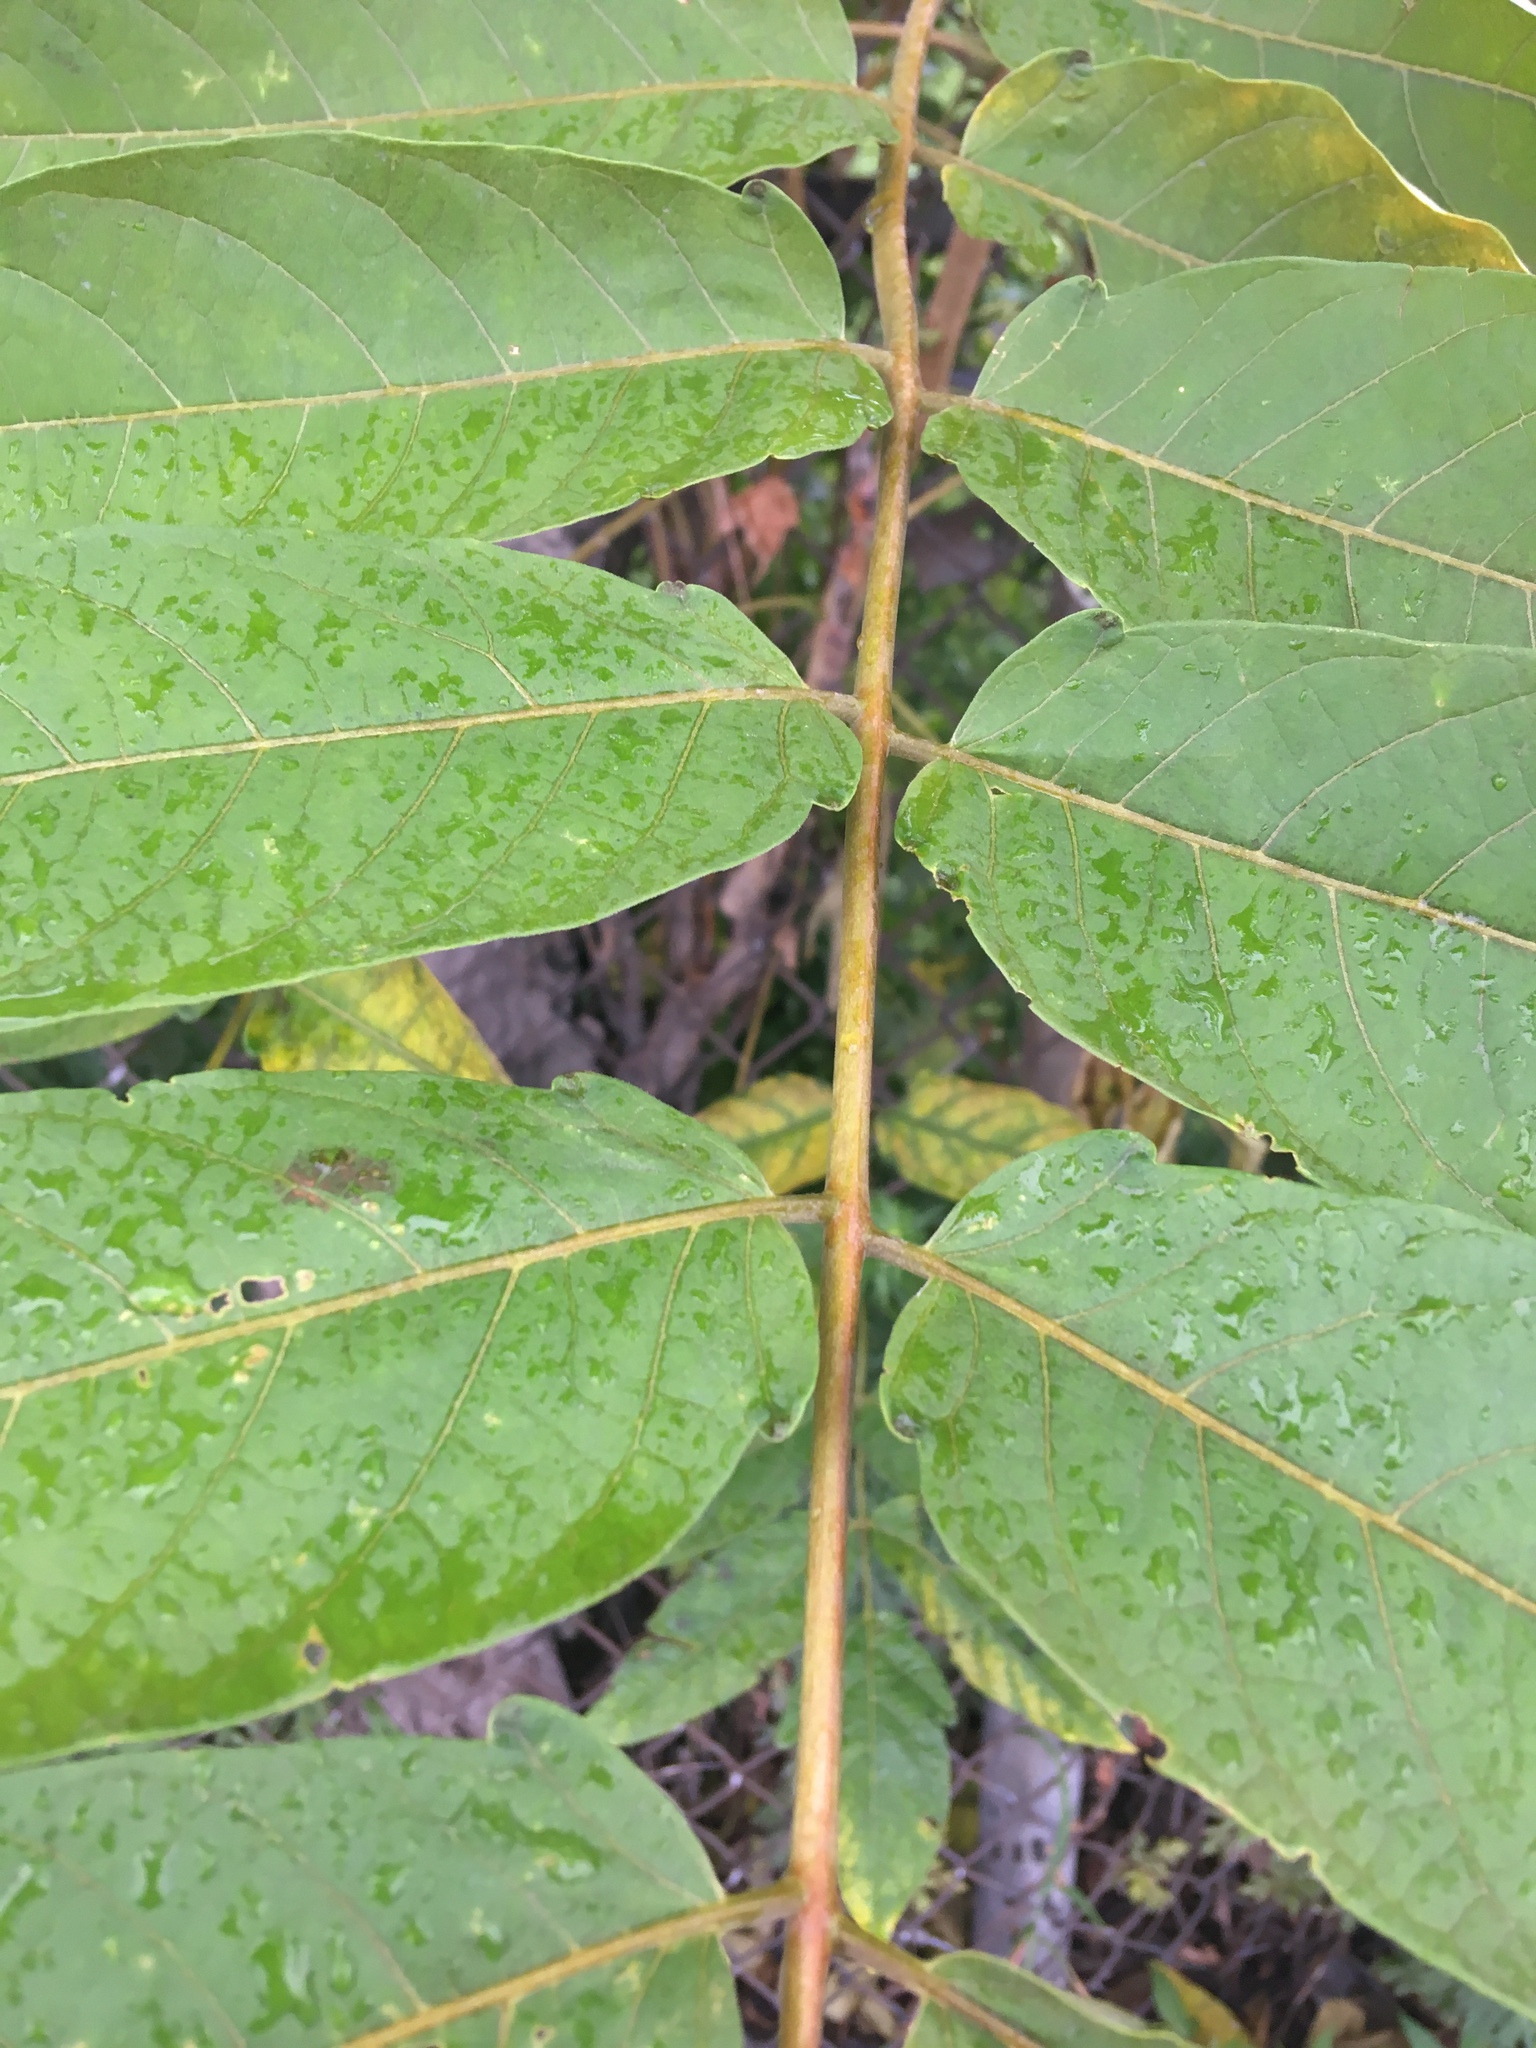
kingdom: Plantae
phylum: Tracheophyta
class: Magnoliopsida
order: Sapindales
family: Simaroubaceae
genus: Ailanthus
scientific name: Ailanthus altissima
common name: Tree-of-heaven
